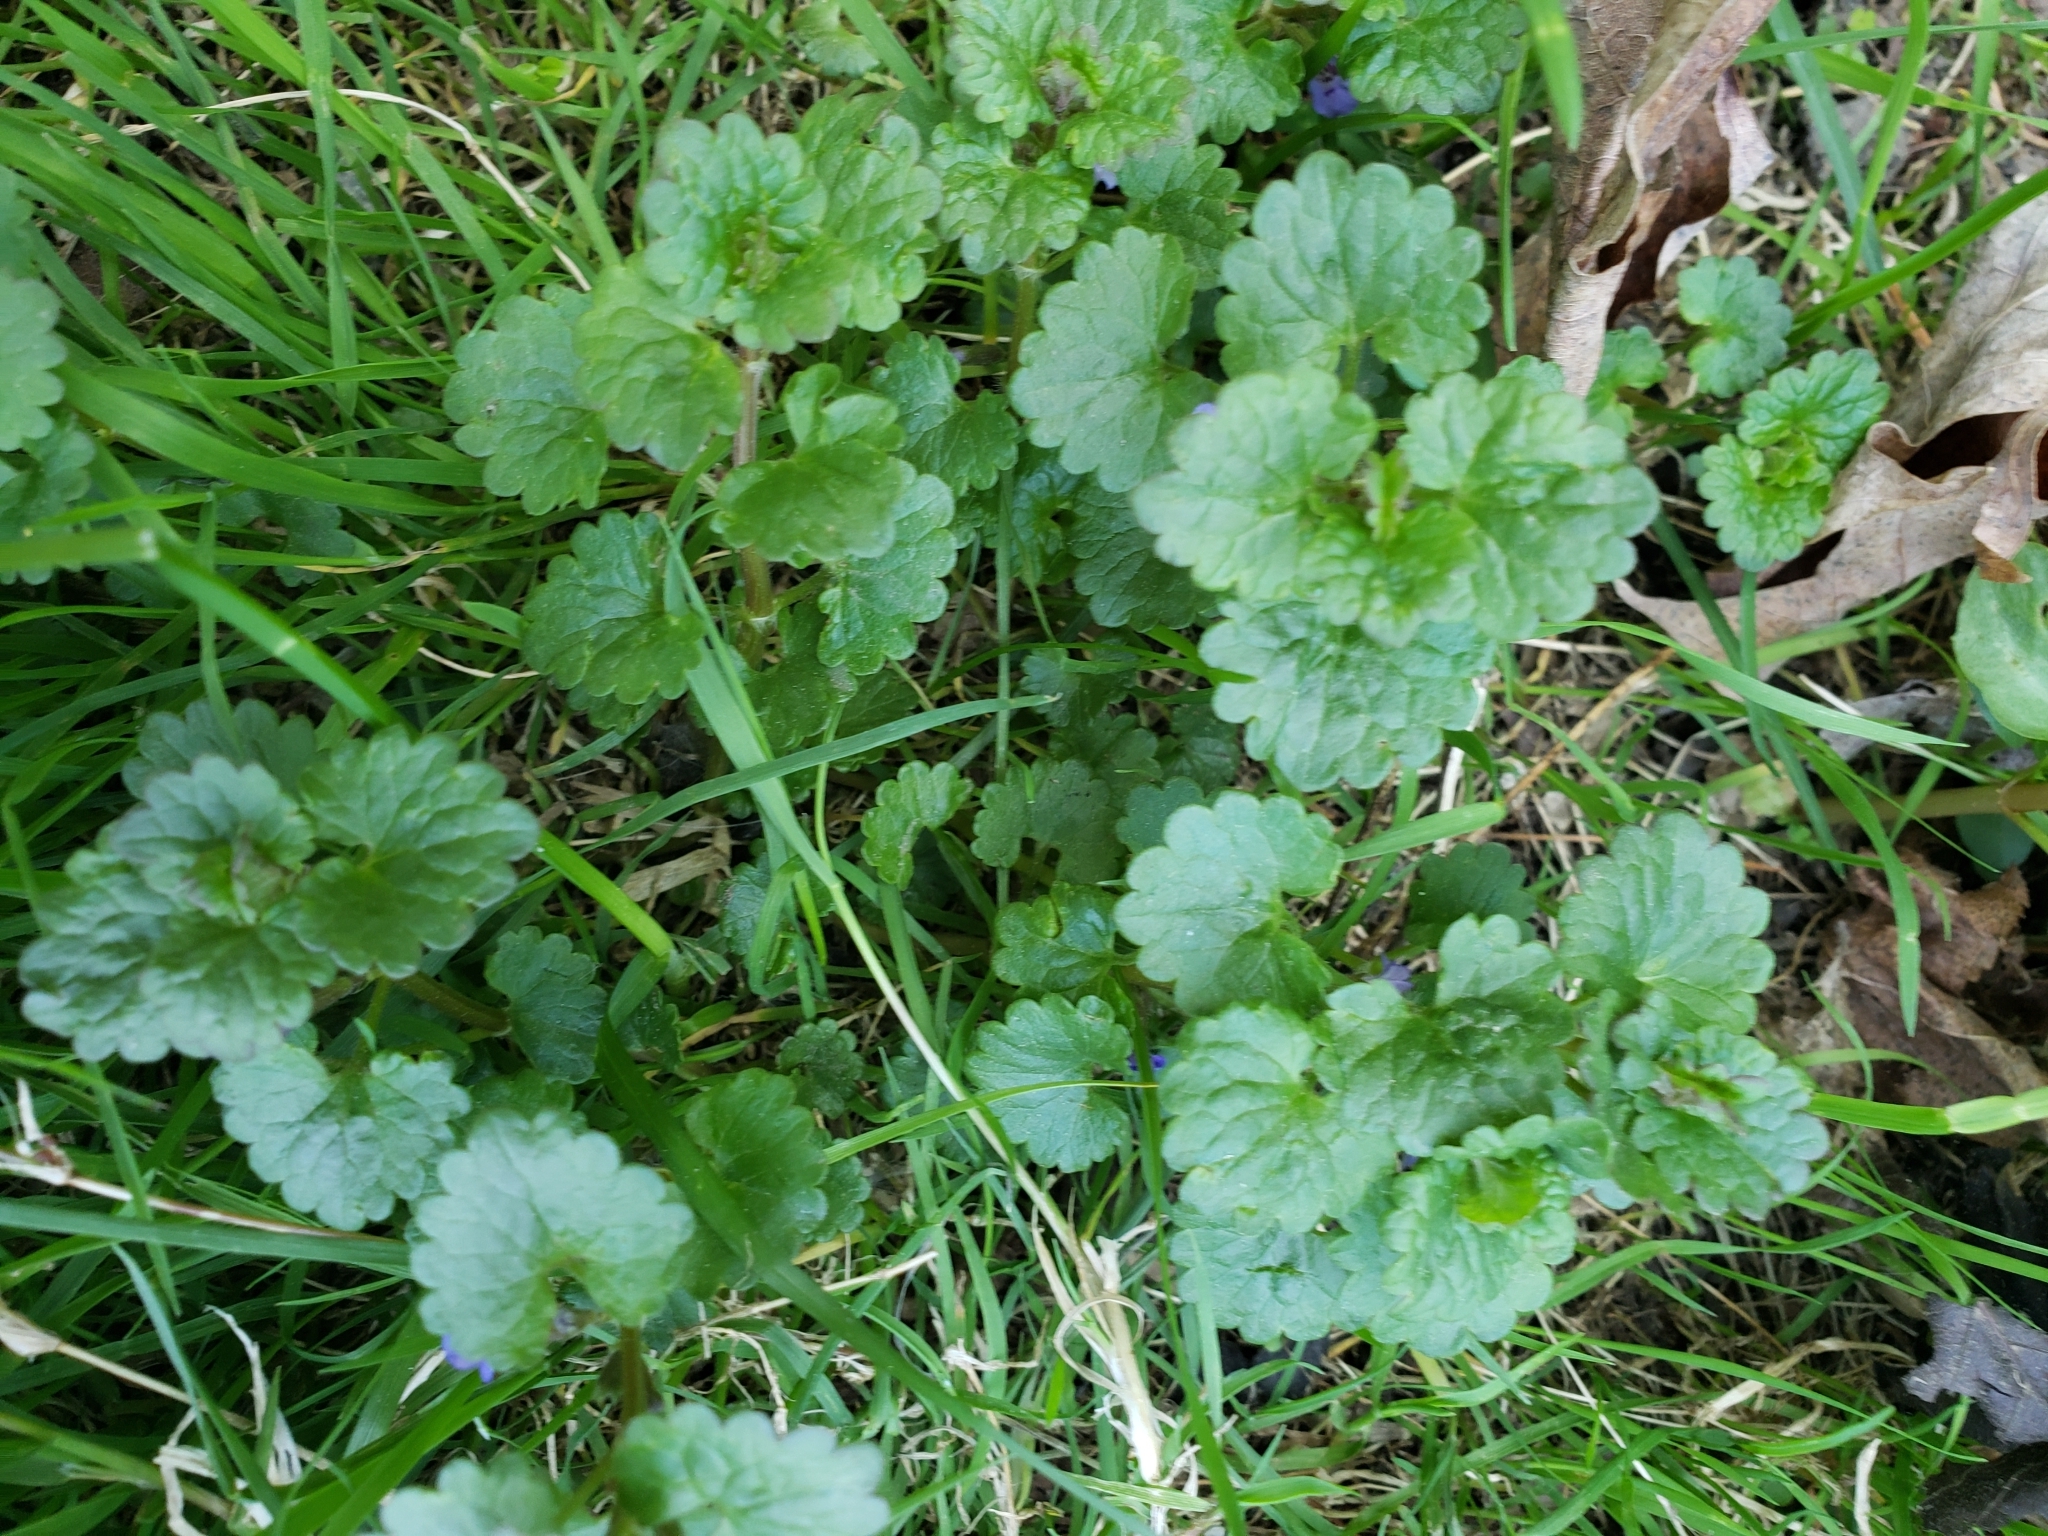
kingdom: Plantae
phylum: Tracheophyta
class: Magnoliopsida
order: Lamiales
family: Lamiaceae
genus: Glechoma
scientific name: Glechoma hederacea
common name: Ground ivy
